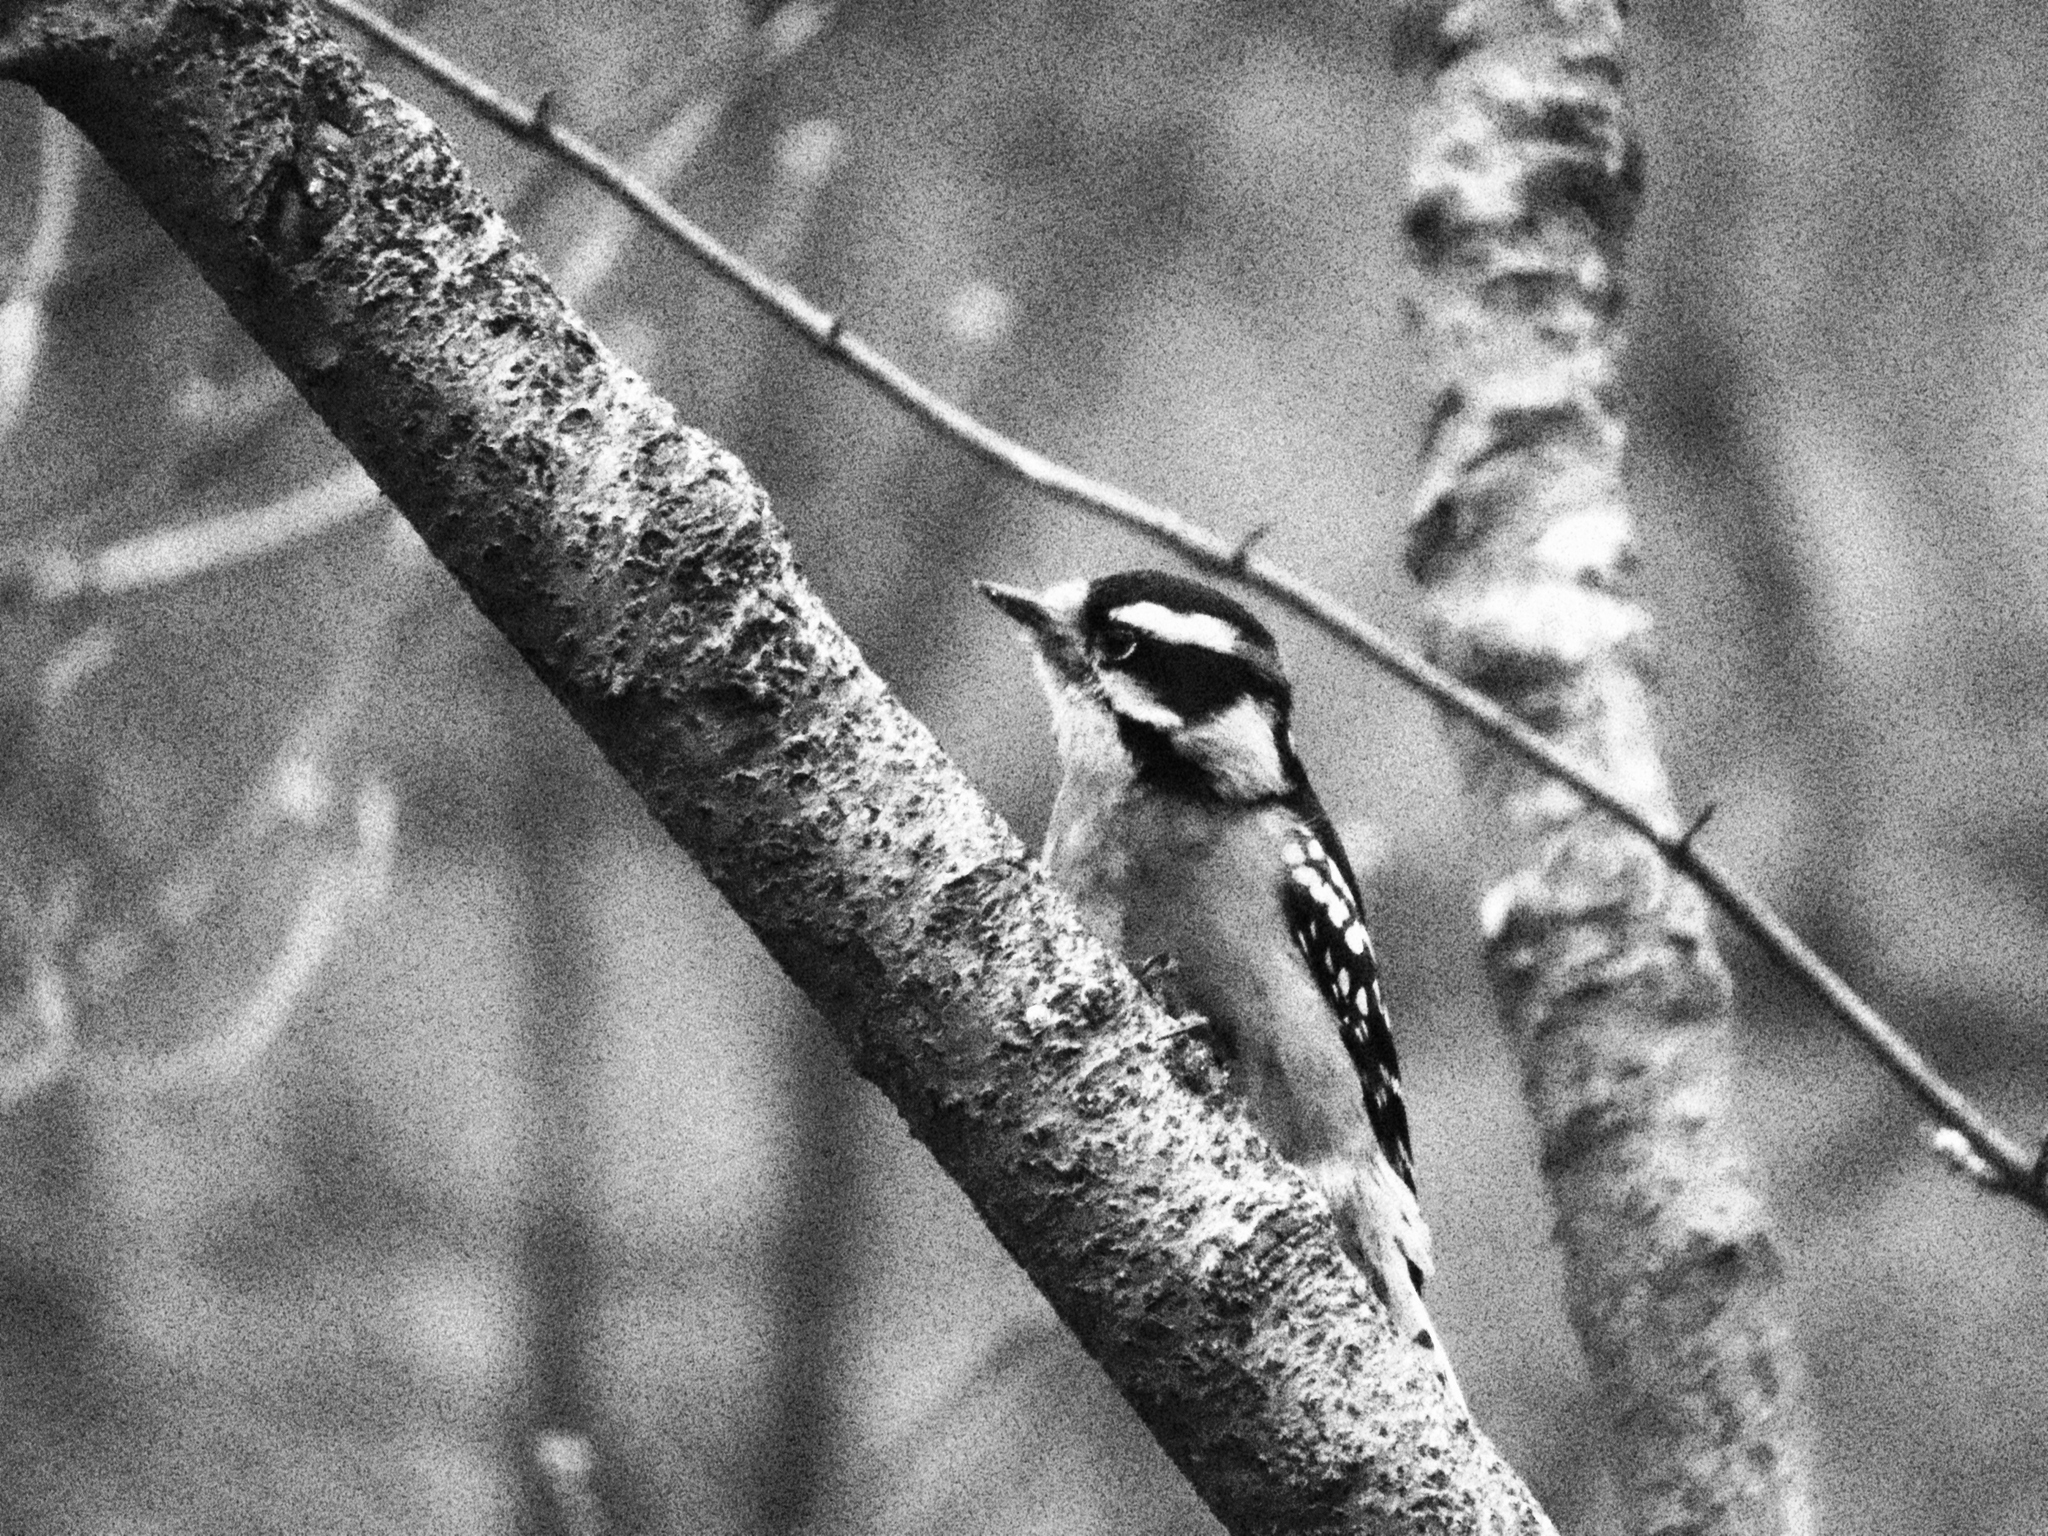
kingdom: Animalia
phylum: Chordata
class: Aves
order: Piciformes
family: Picidae
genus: Dryobates
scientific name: Dryobates pubescens
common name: Downy woodpecker
